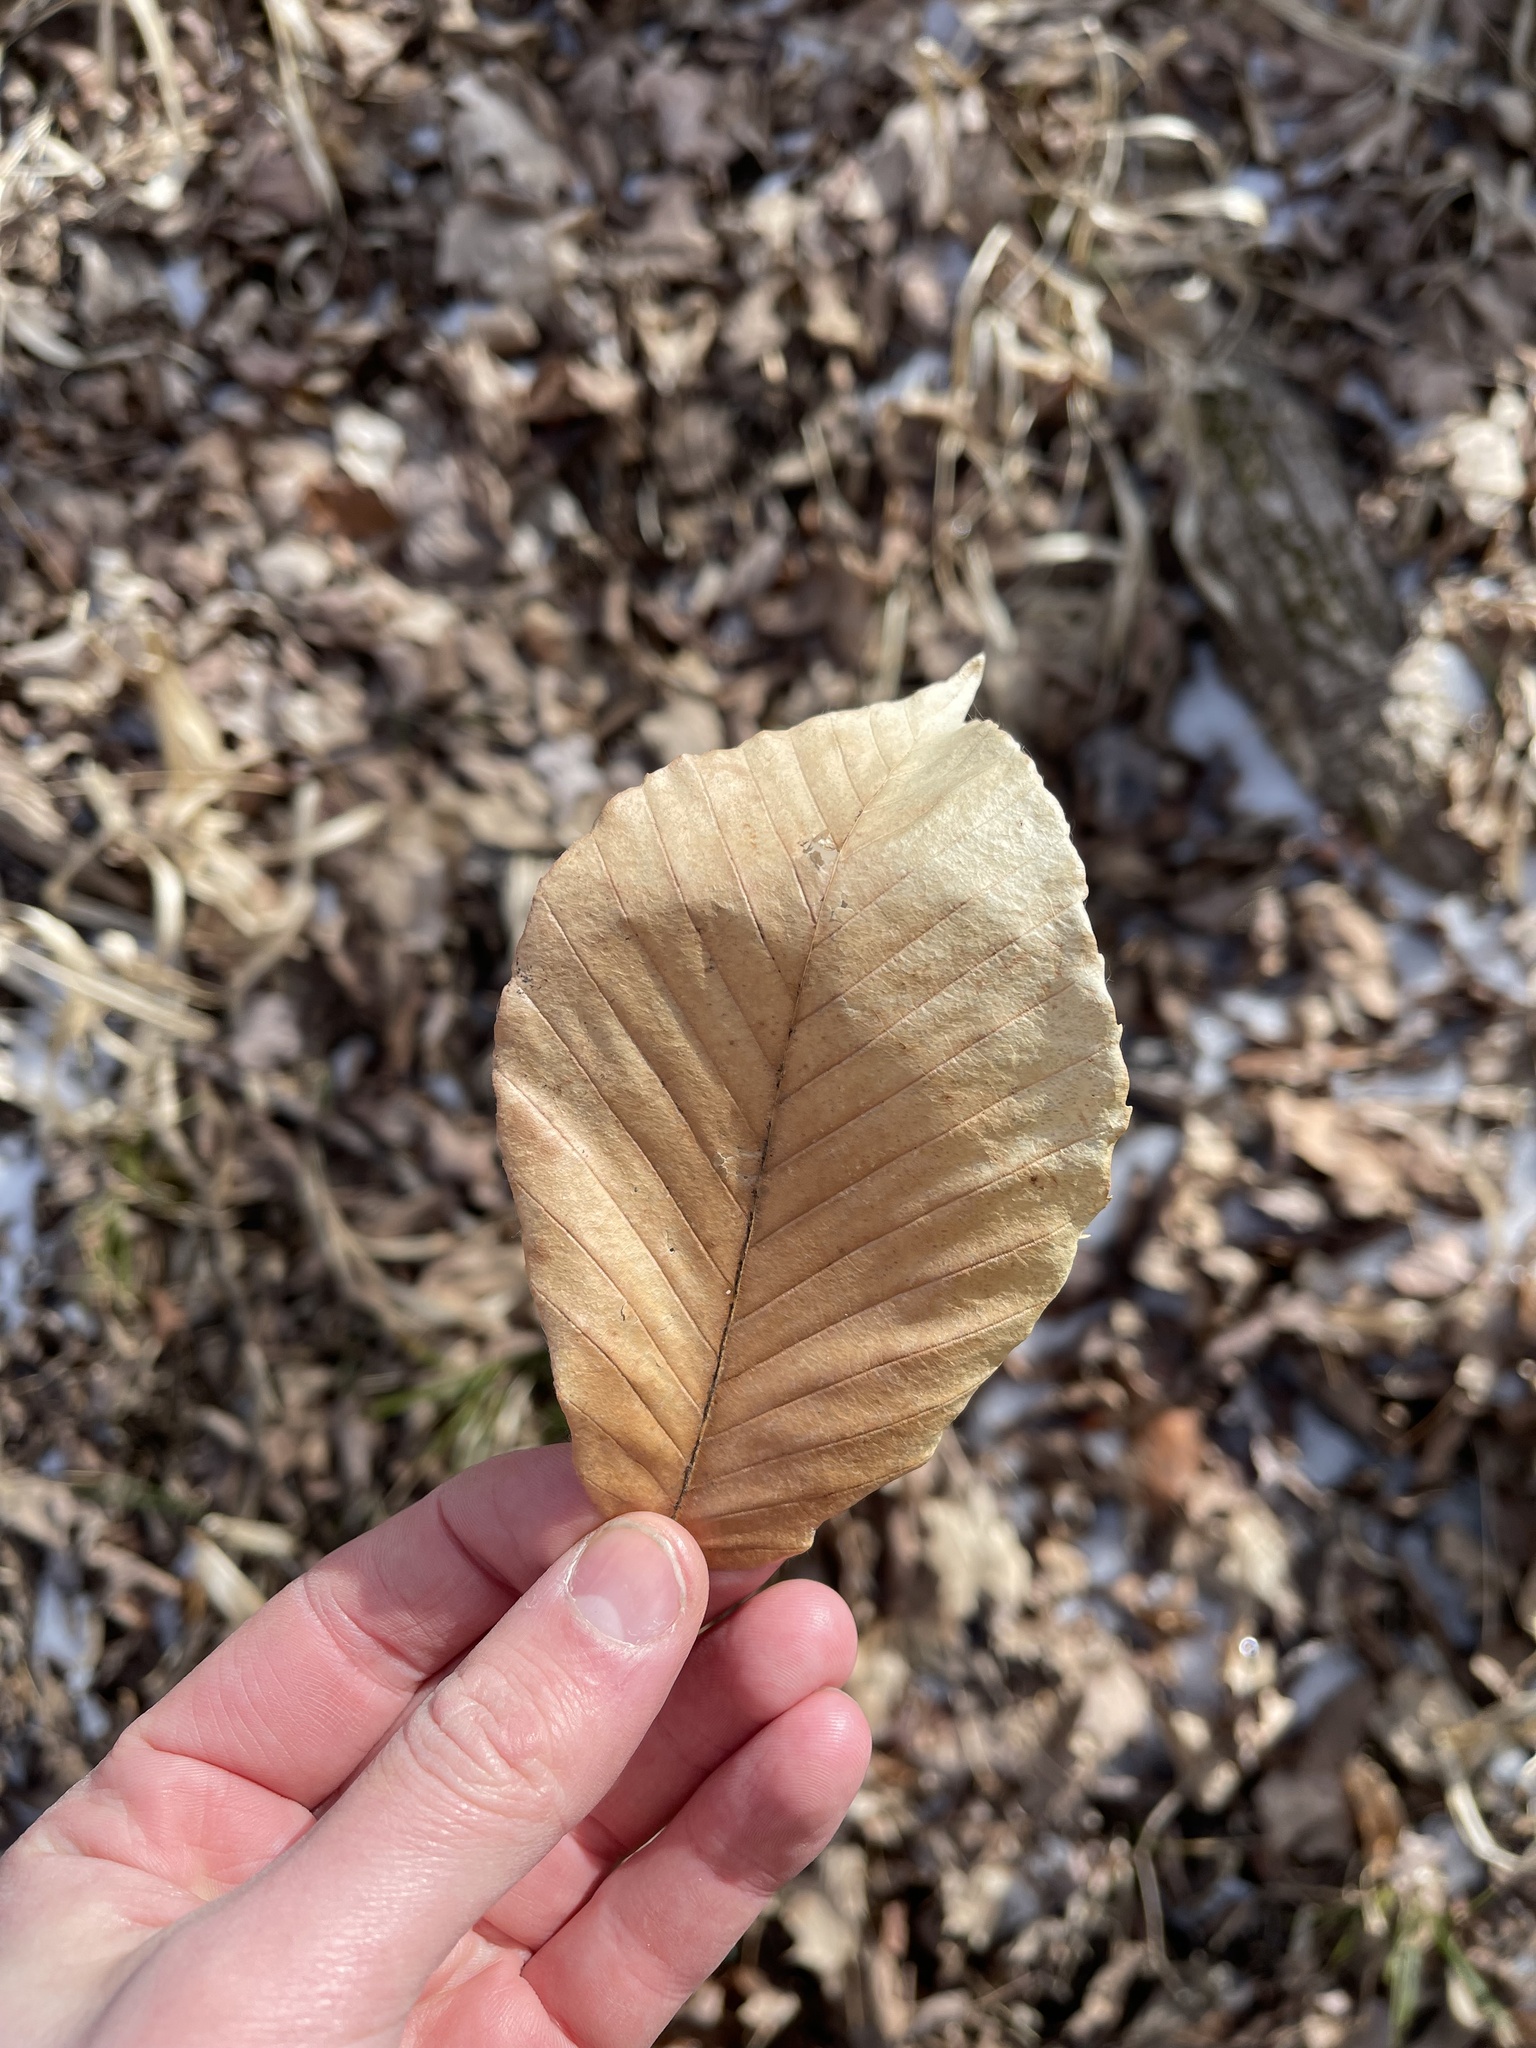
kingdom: Plantae
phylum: Tracheophyta
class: Magnoliopsida
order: Fagales
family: Fagaceae
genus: Fagus
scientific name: Fagus grandifolia
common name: American beech
